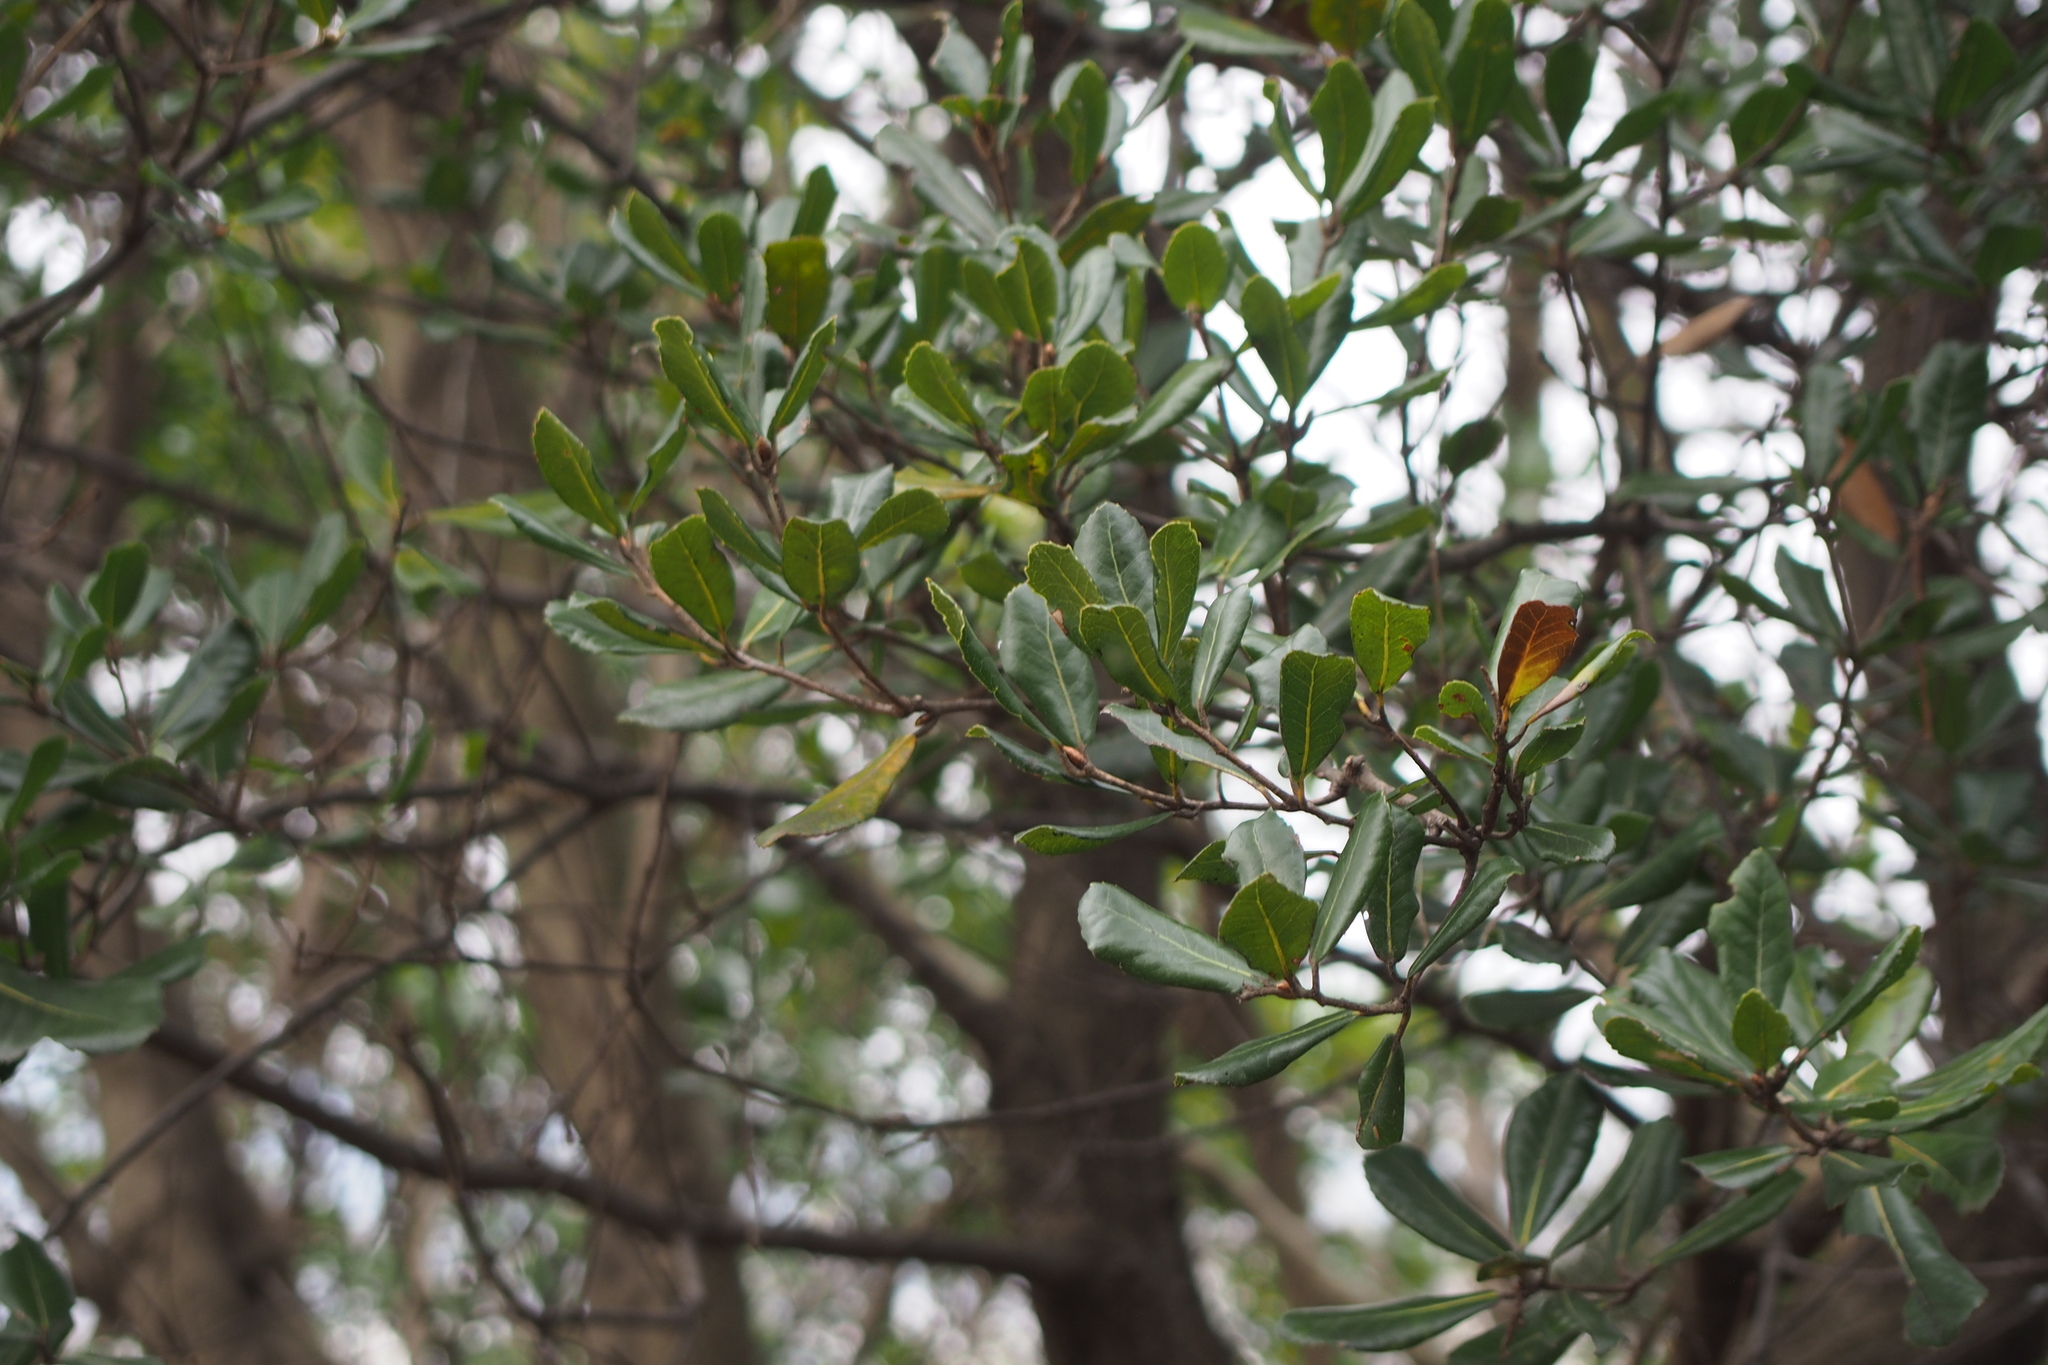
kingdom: Plantae
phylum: Tracheophyta
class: Magnoliopsida
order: Fagales
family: Fagaceae
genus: Quercus
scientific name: Quercus phillyreoides
